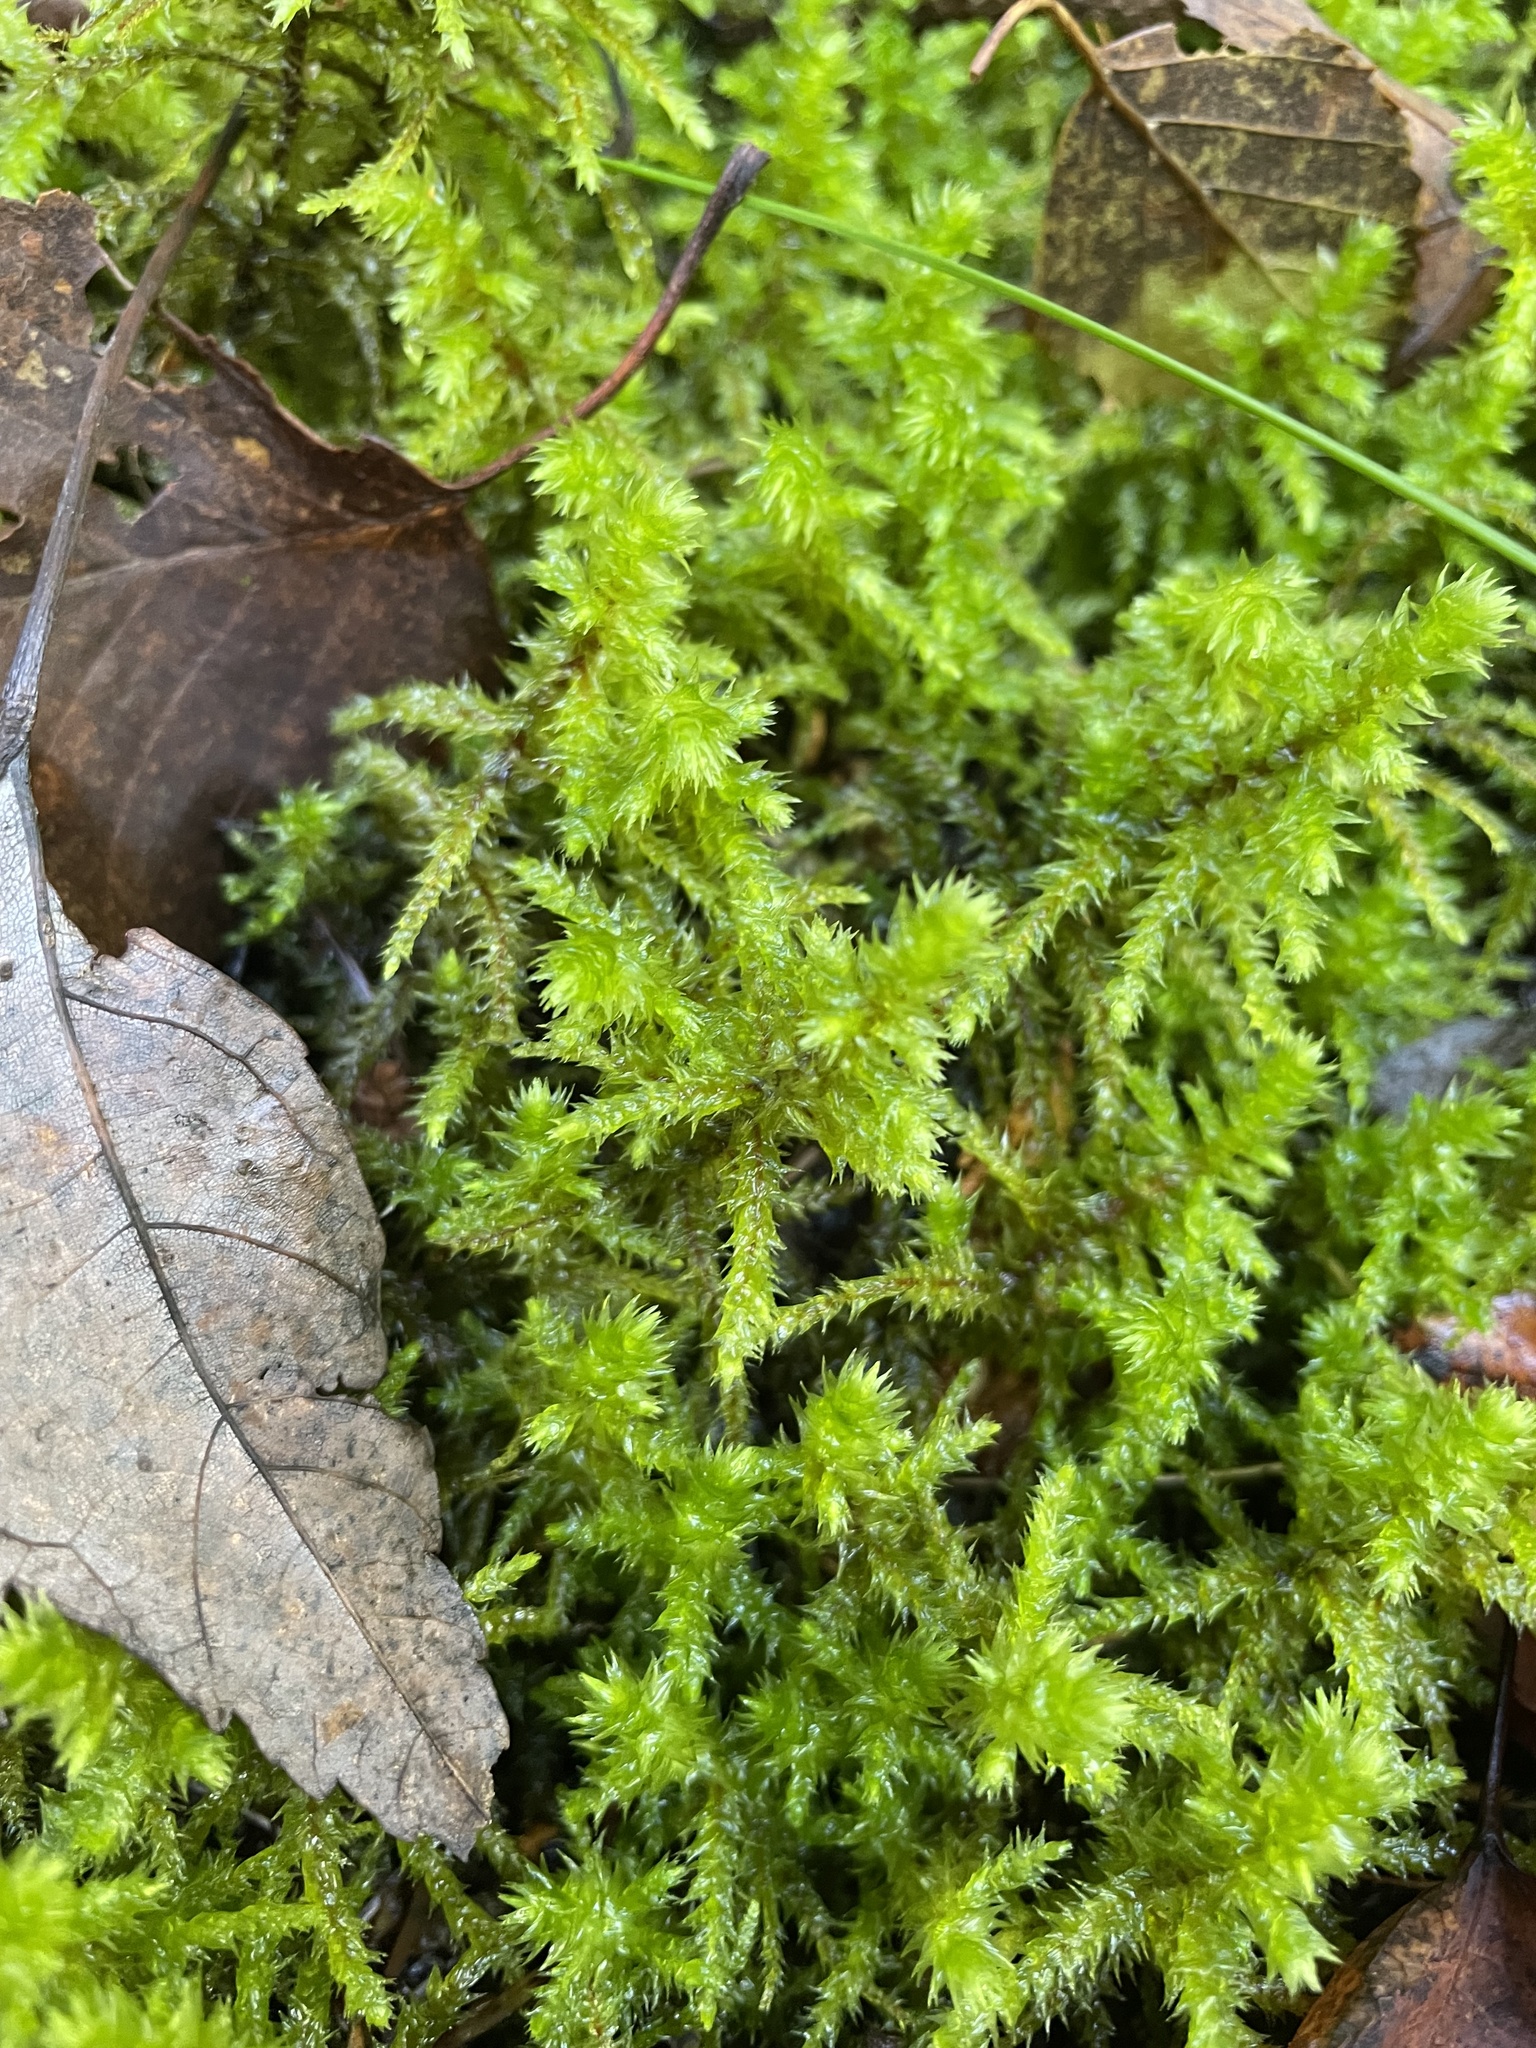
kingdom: Plantae
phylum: Bryophyta
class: Bryopsida
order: Hypnales
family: Hylocomiaceae
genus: Hylocomiadelphus
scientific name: Hylocomiadelphus triquetrus
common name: Rough goose neck moss
